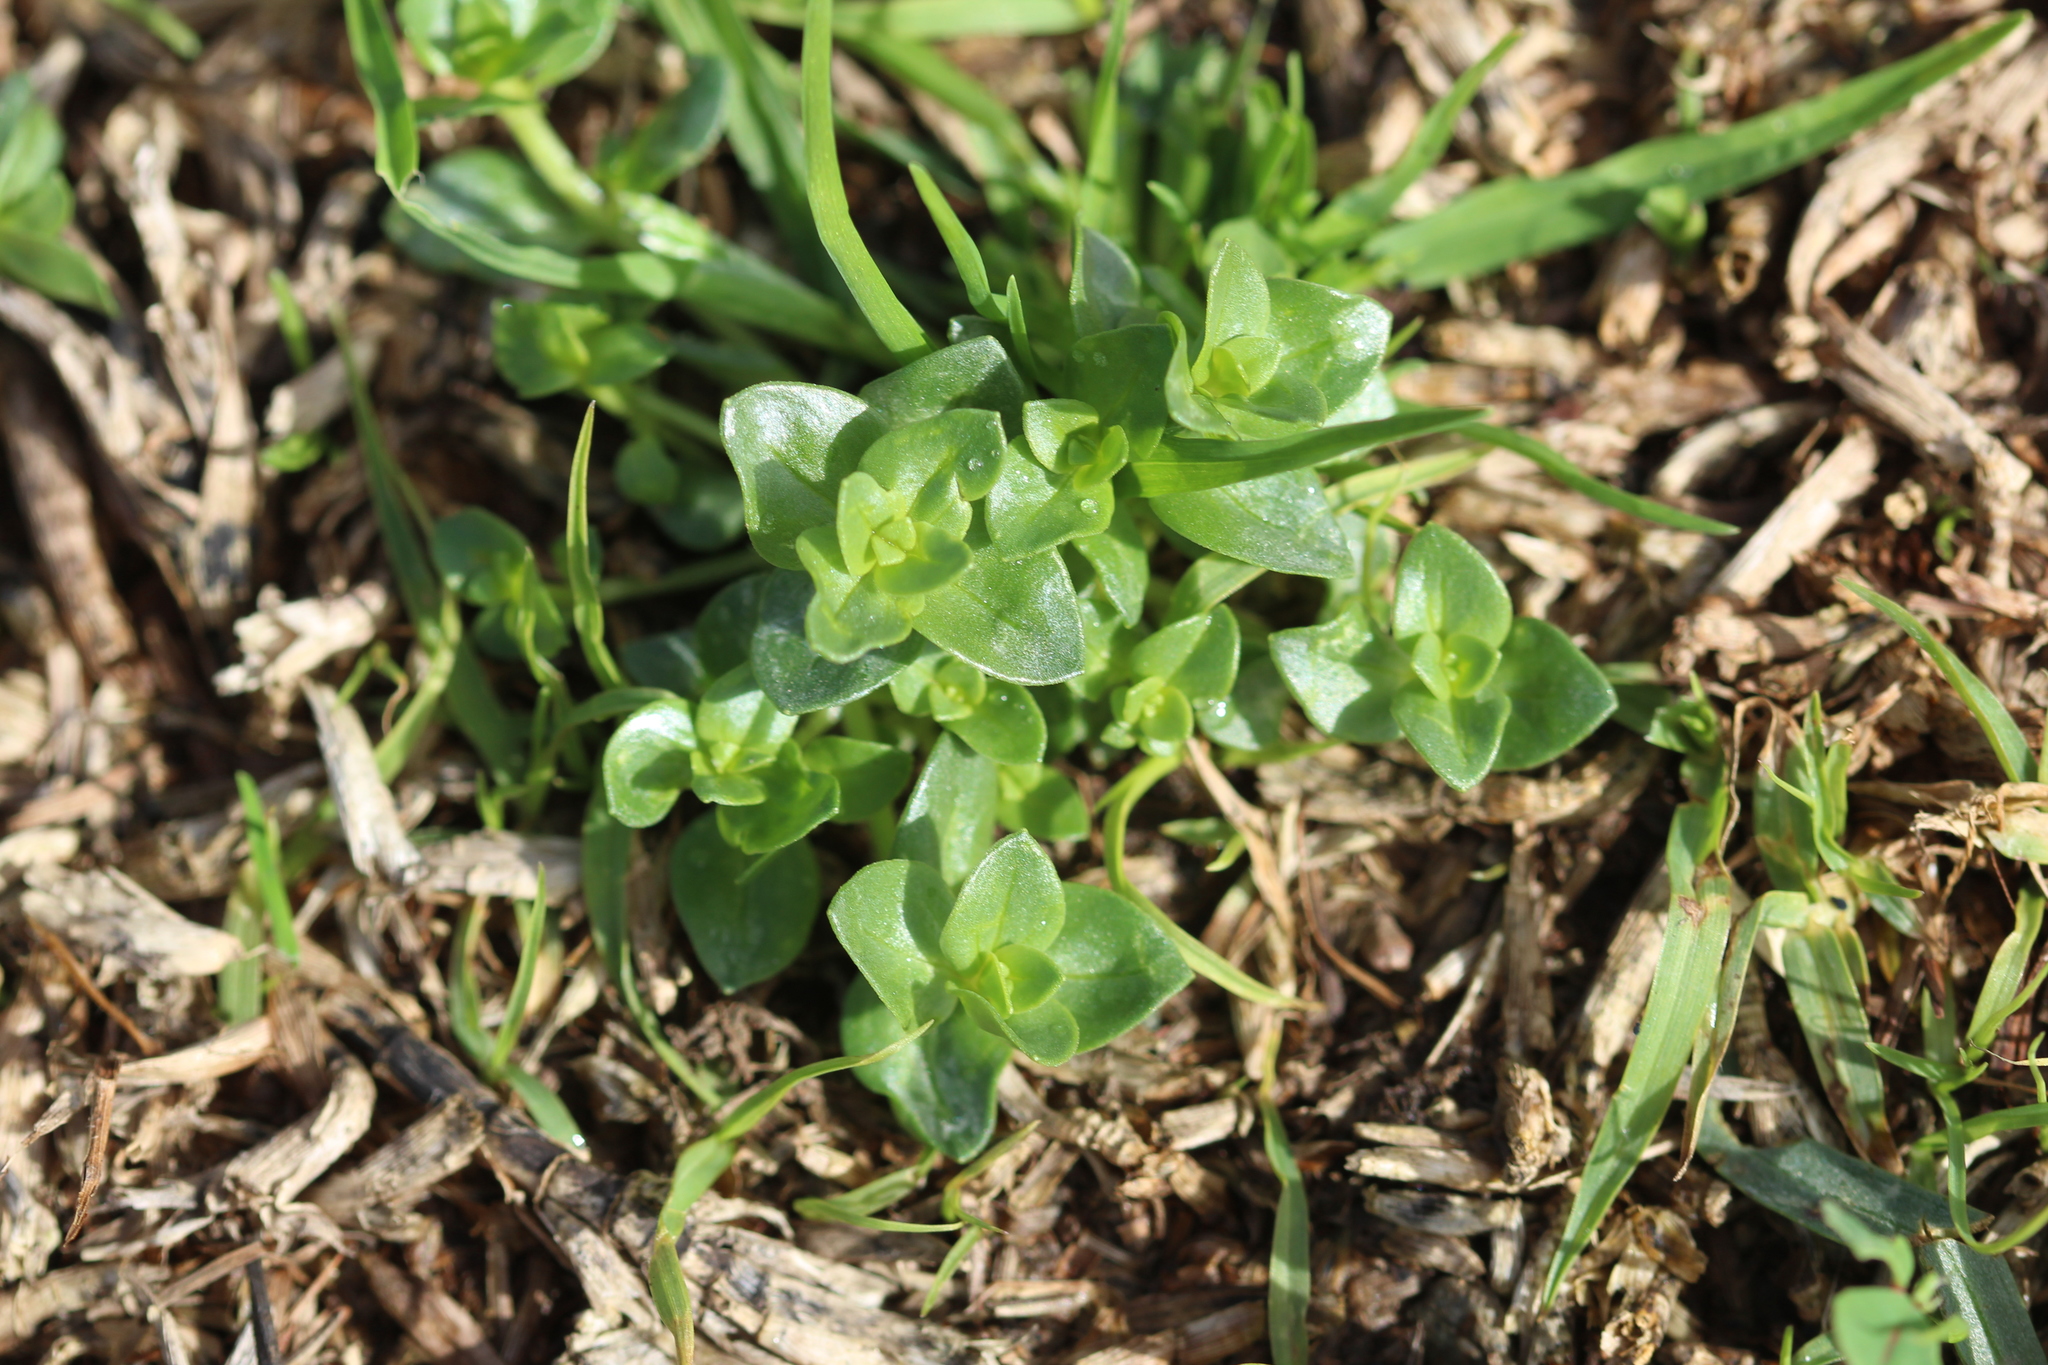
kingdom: Plantae
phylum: Tracheophyta
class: Magnoliopsida
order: Ericales
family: Primulaceae
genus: Lysimachia
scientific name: Lysimachia arvensis
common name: Scarlet pimpernel
